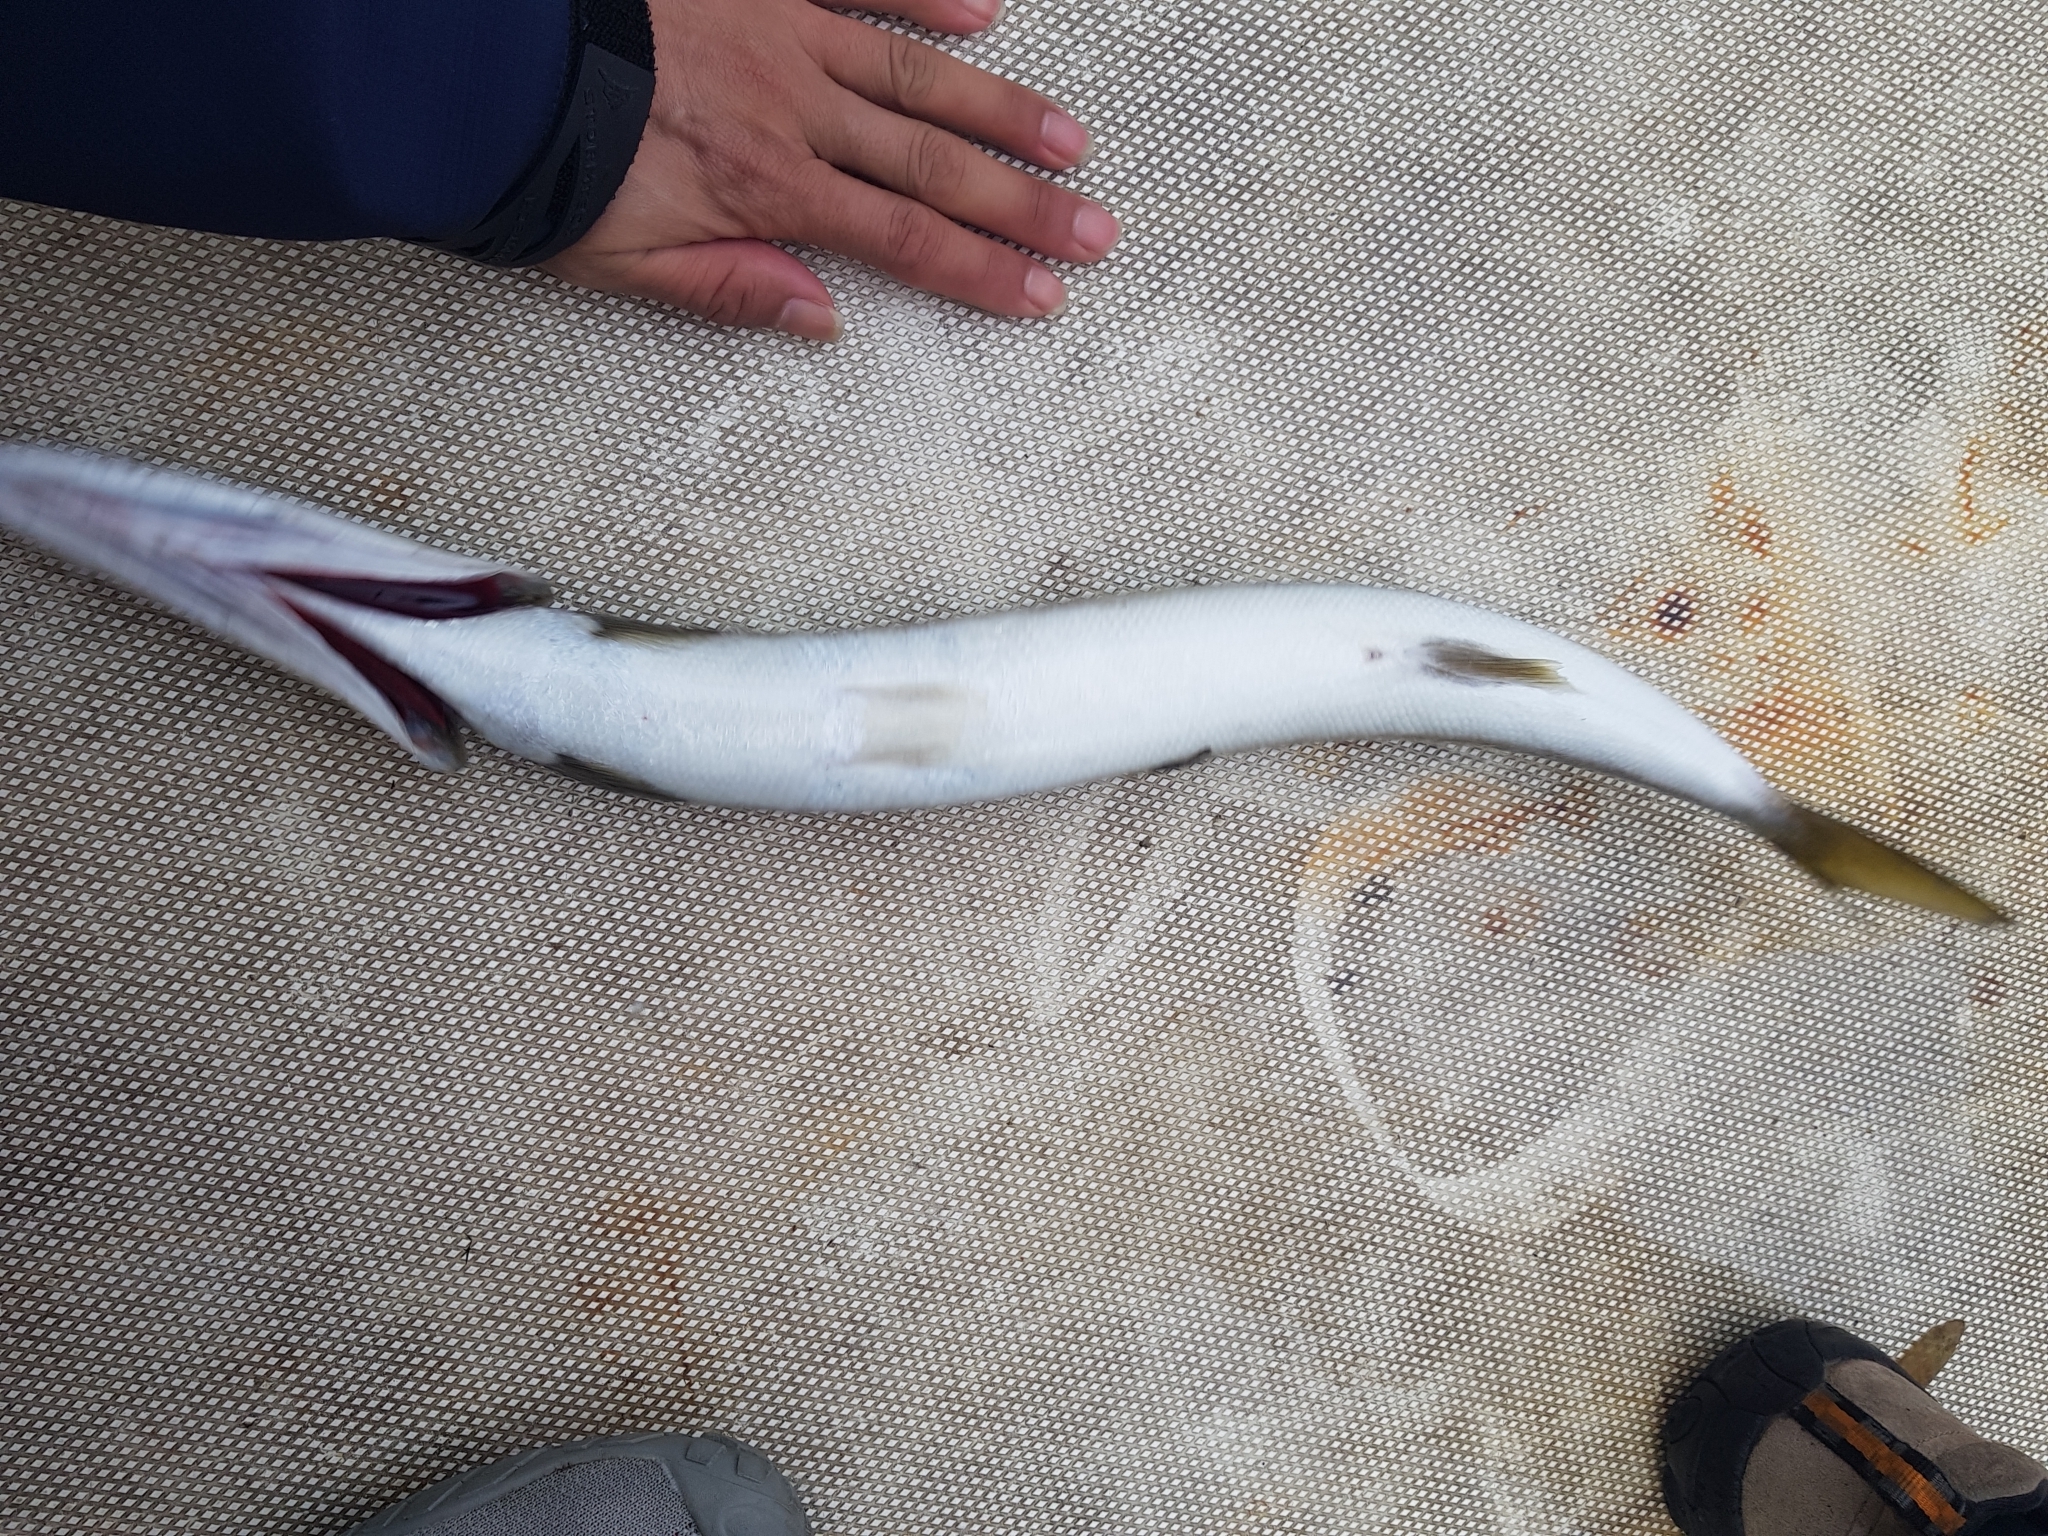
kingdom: Animalia
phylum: Chordata
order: Perciformes
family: Sphyraenidae
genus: Sphyraena
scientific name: Sphyraena novaehollandiae
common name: Arrow barracuda
